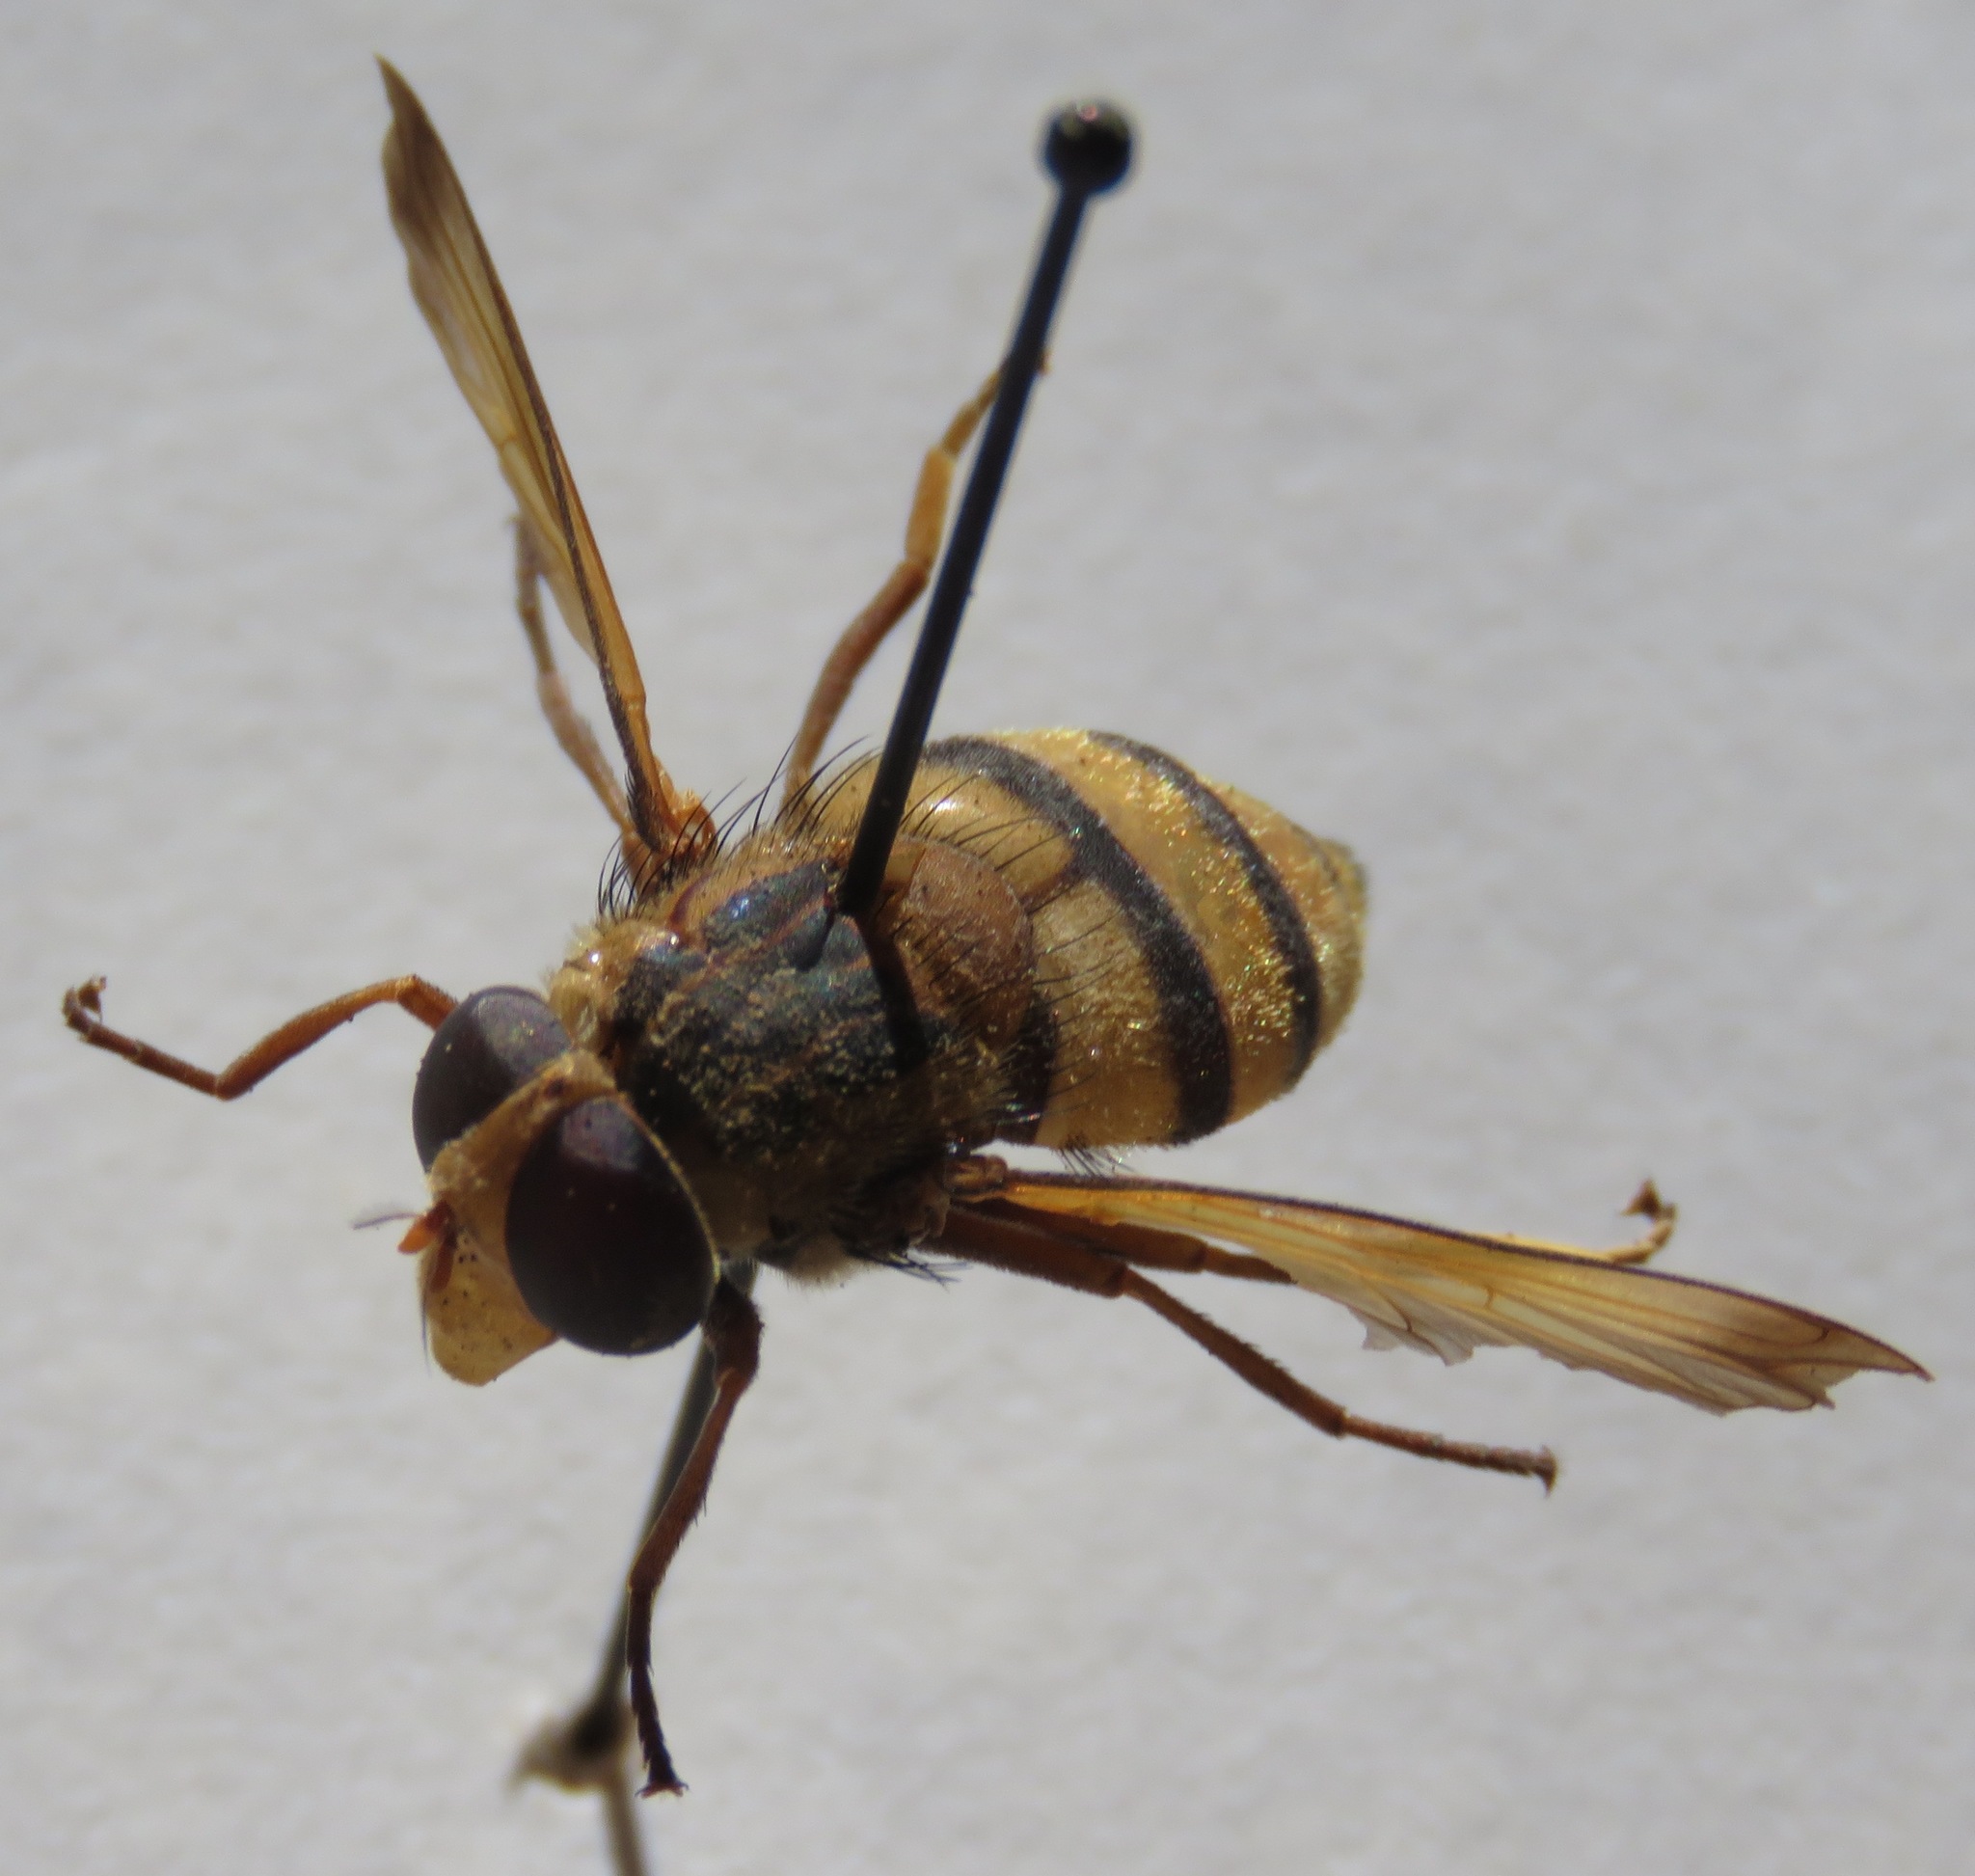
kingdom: Animalia
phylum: Arthropoda
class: Insecta
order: Diptera
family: Syrphidae
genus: Volucella
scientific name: Volucella inanis
